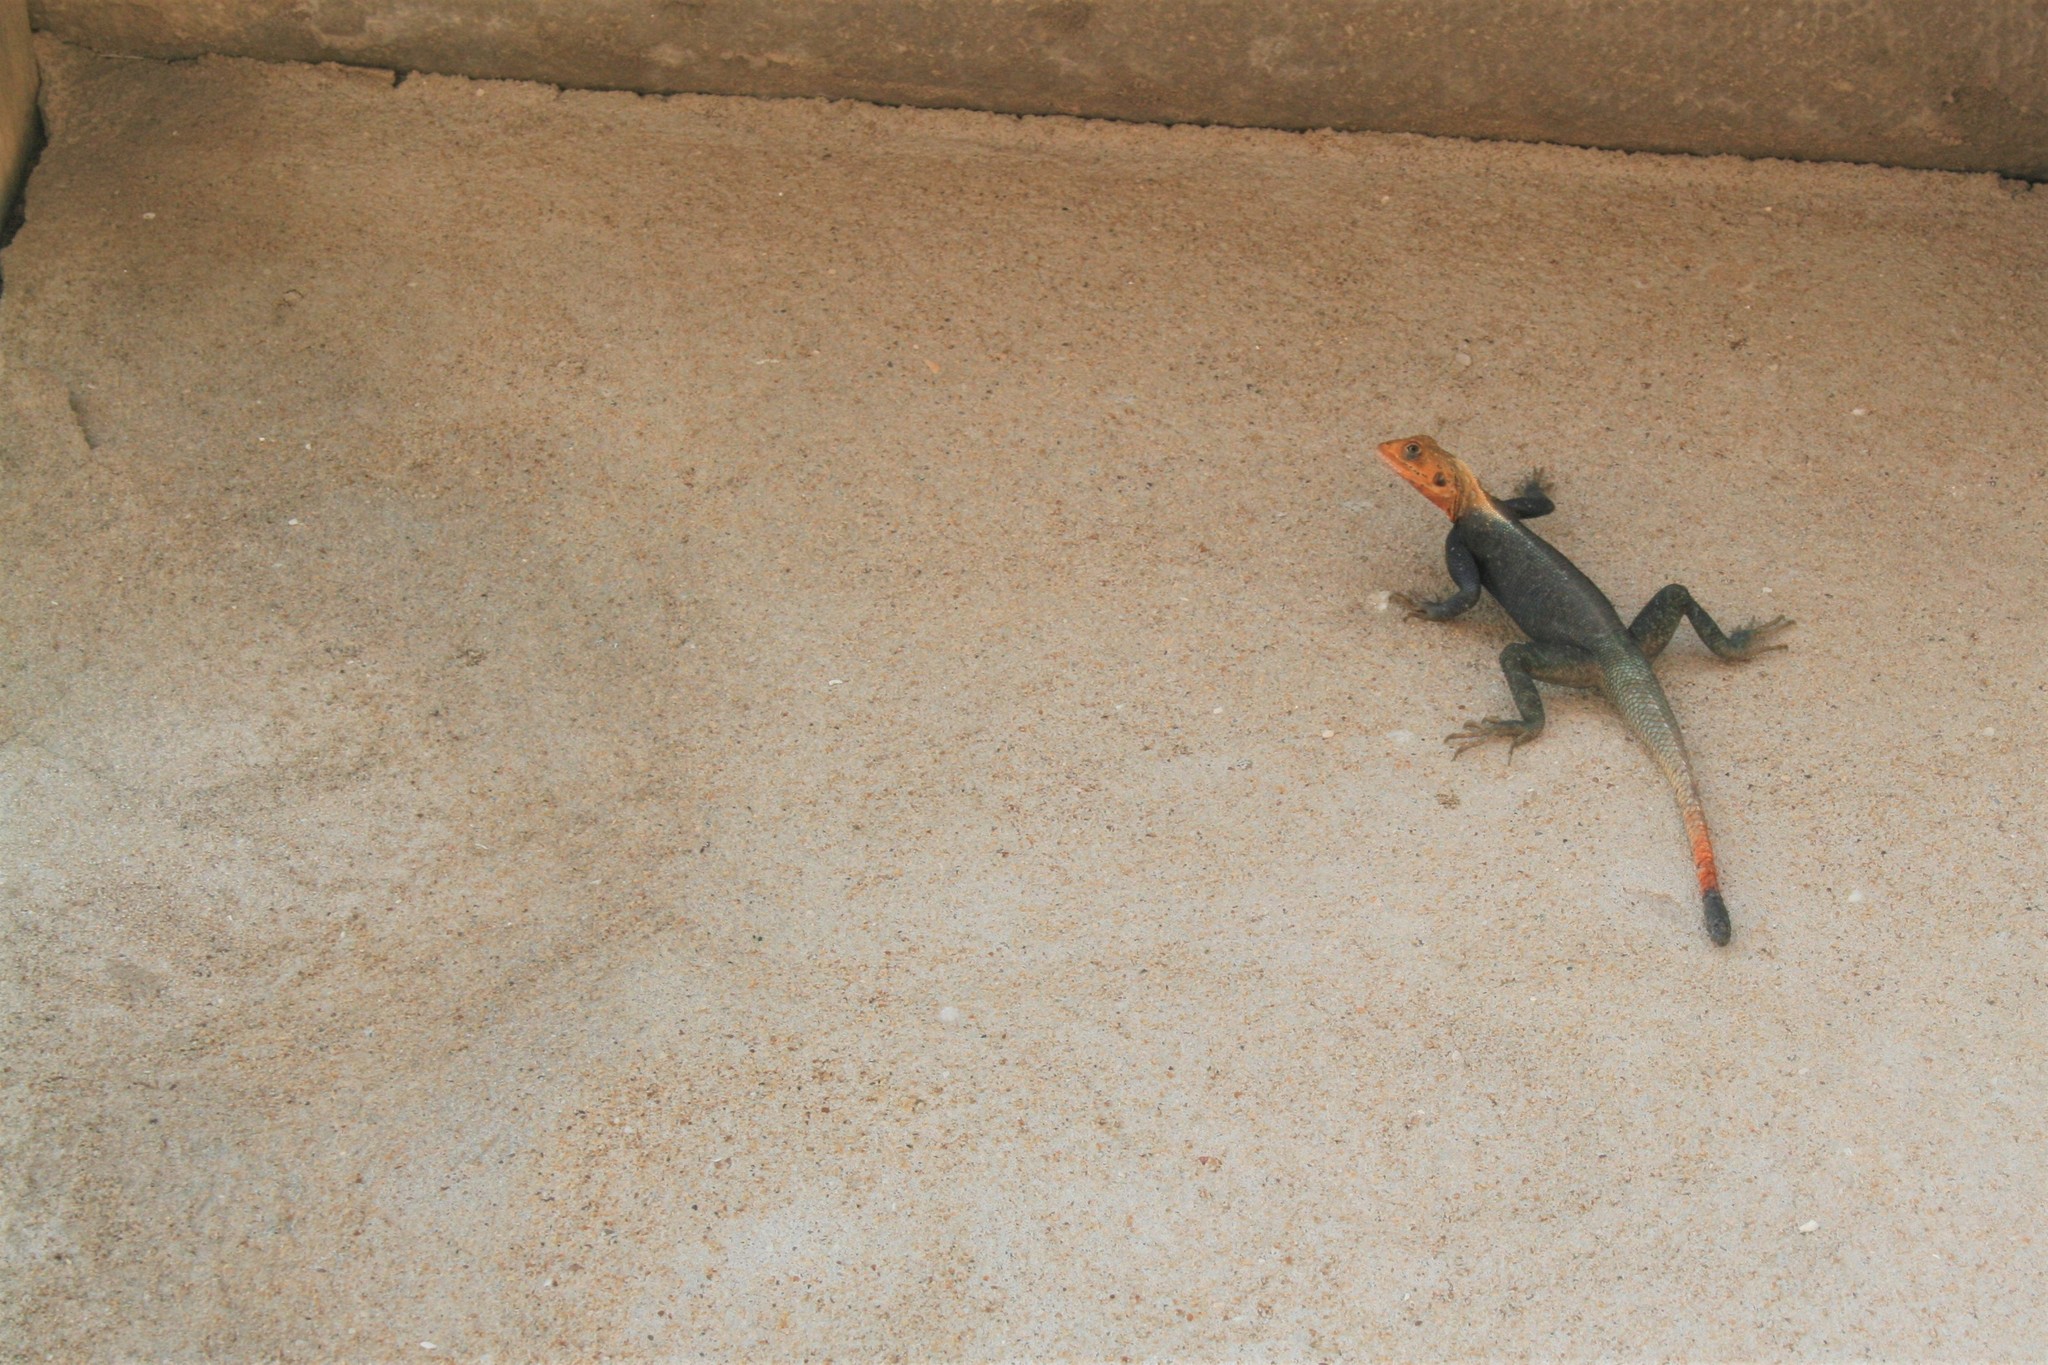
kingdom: Animalia
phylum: Chordata
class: Squamata
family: Agamidae
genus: Agama
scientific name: Agama agama
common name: Common agama
